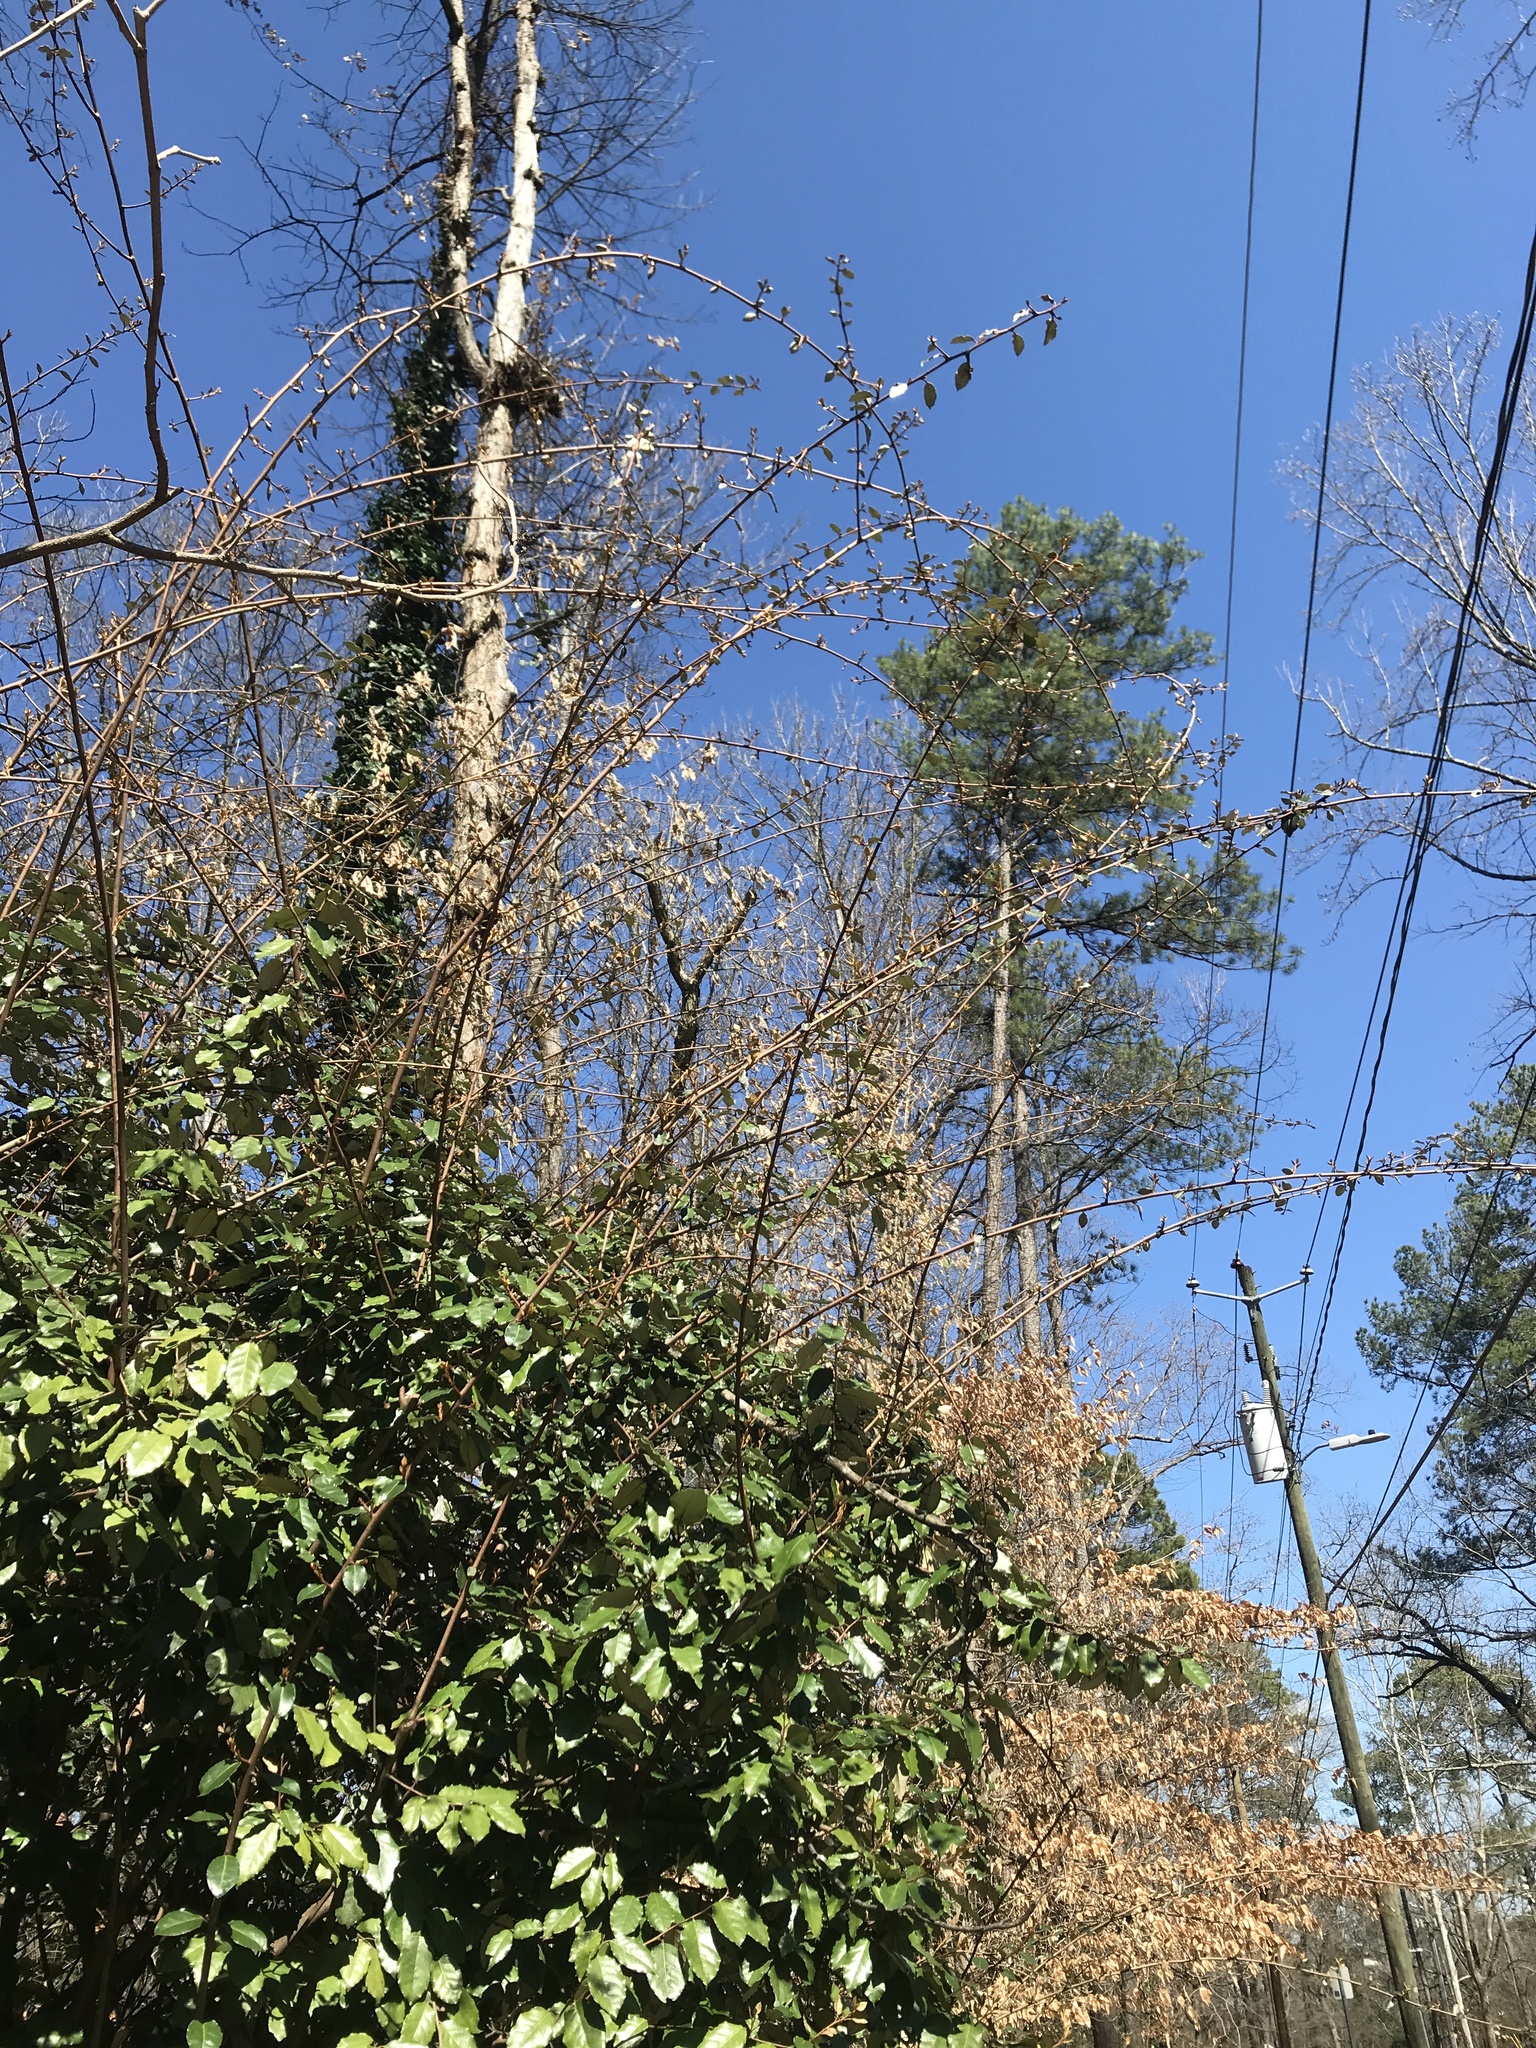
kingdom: Plantae
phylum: Tracheophyta
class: Magnoliopsida
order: Rosales
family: Elaeagnaceae
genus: Elaeagnus
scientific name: Elaeagnus pungens
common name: Spiny oleaster
